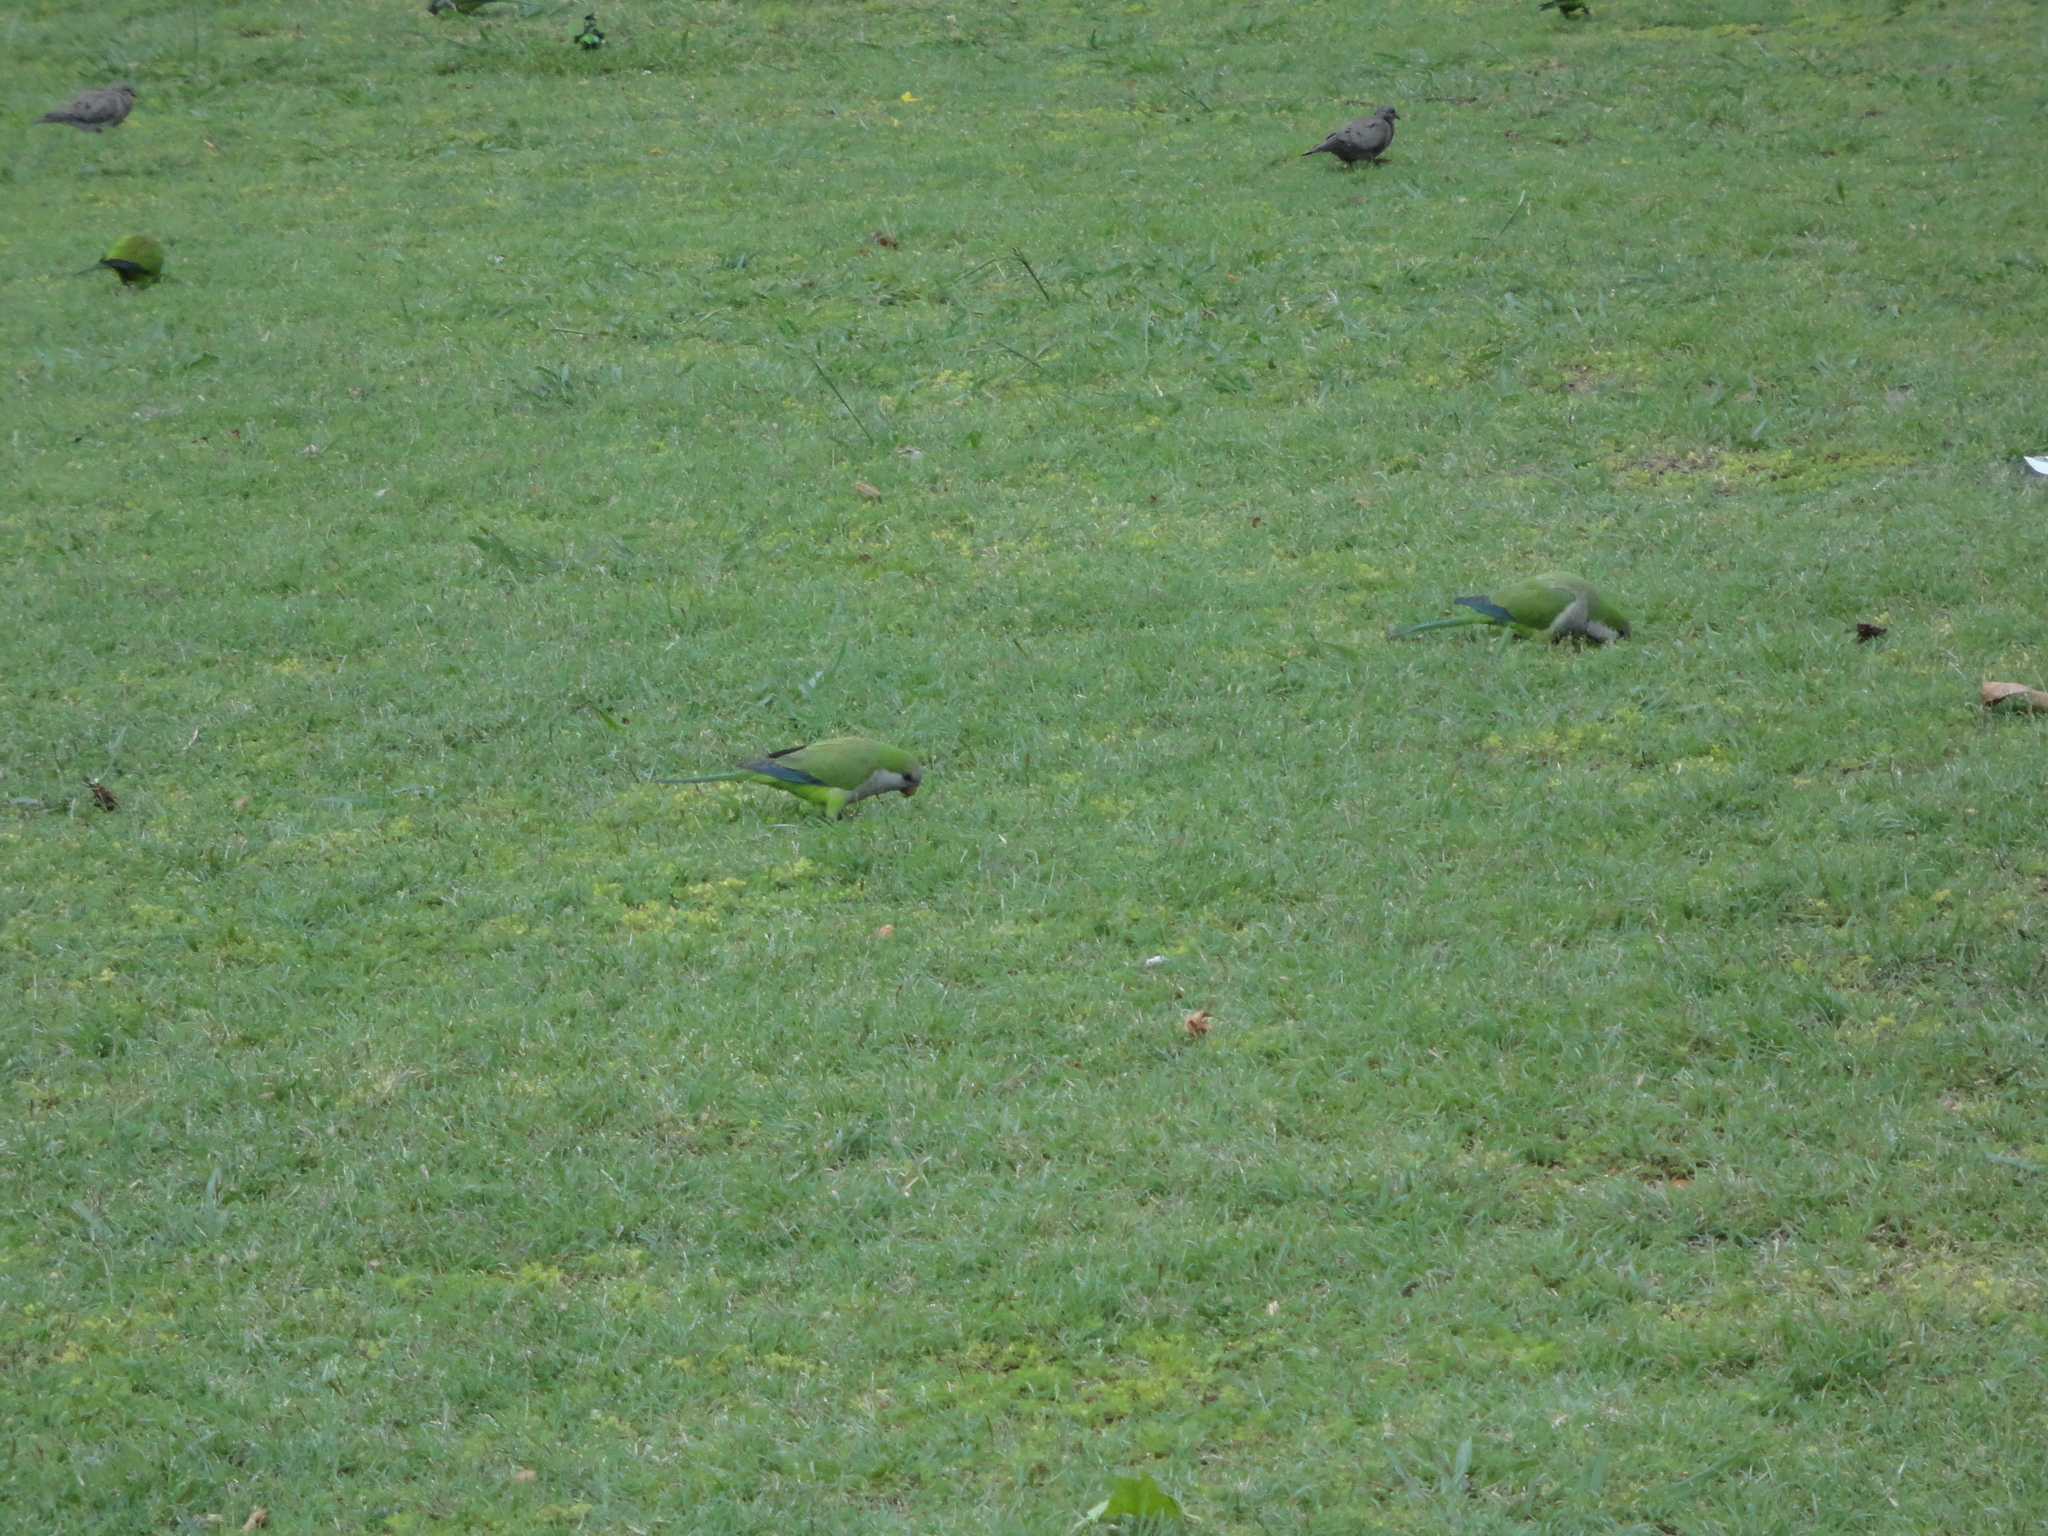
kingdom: Animalia
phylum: Chordata
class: Aves
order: Psittaciformes
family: Psittacidae
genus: Myiopsitta
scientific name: Myiopsitta monachus
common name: Monk parakeet
